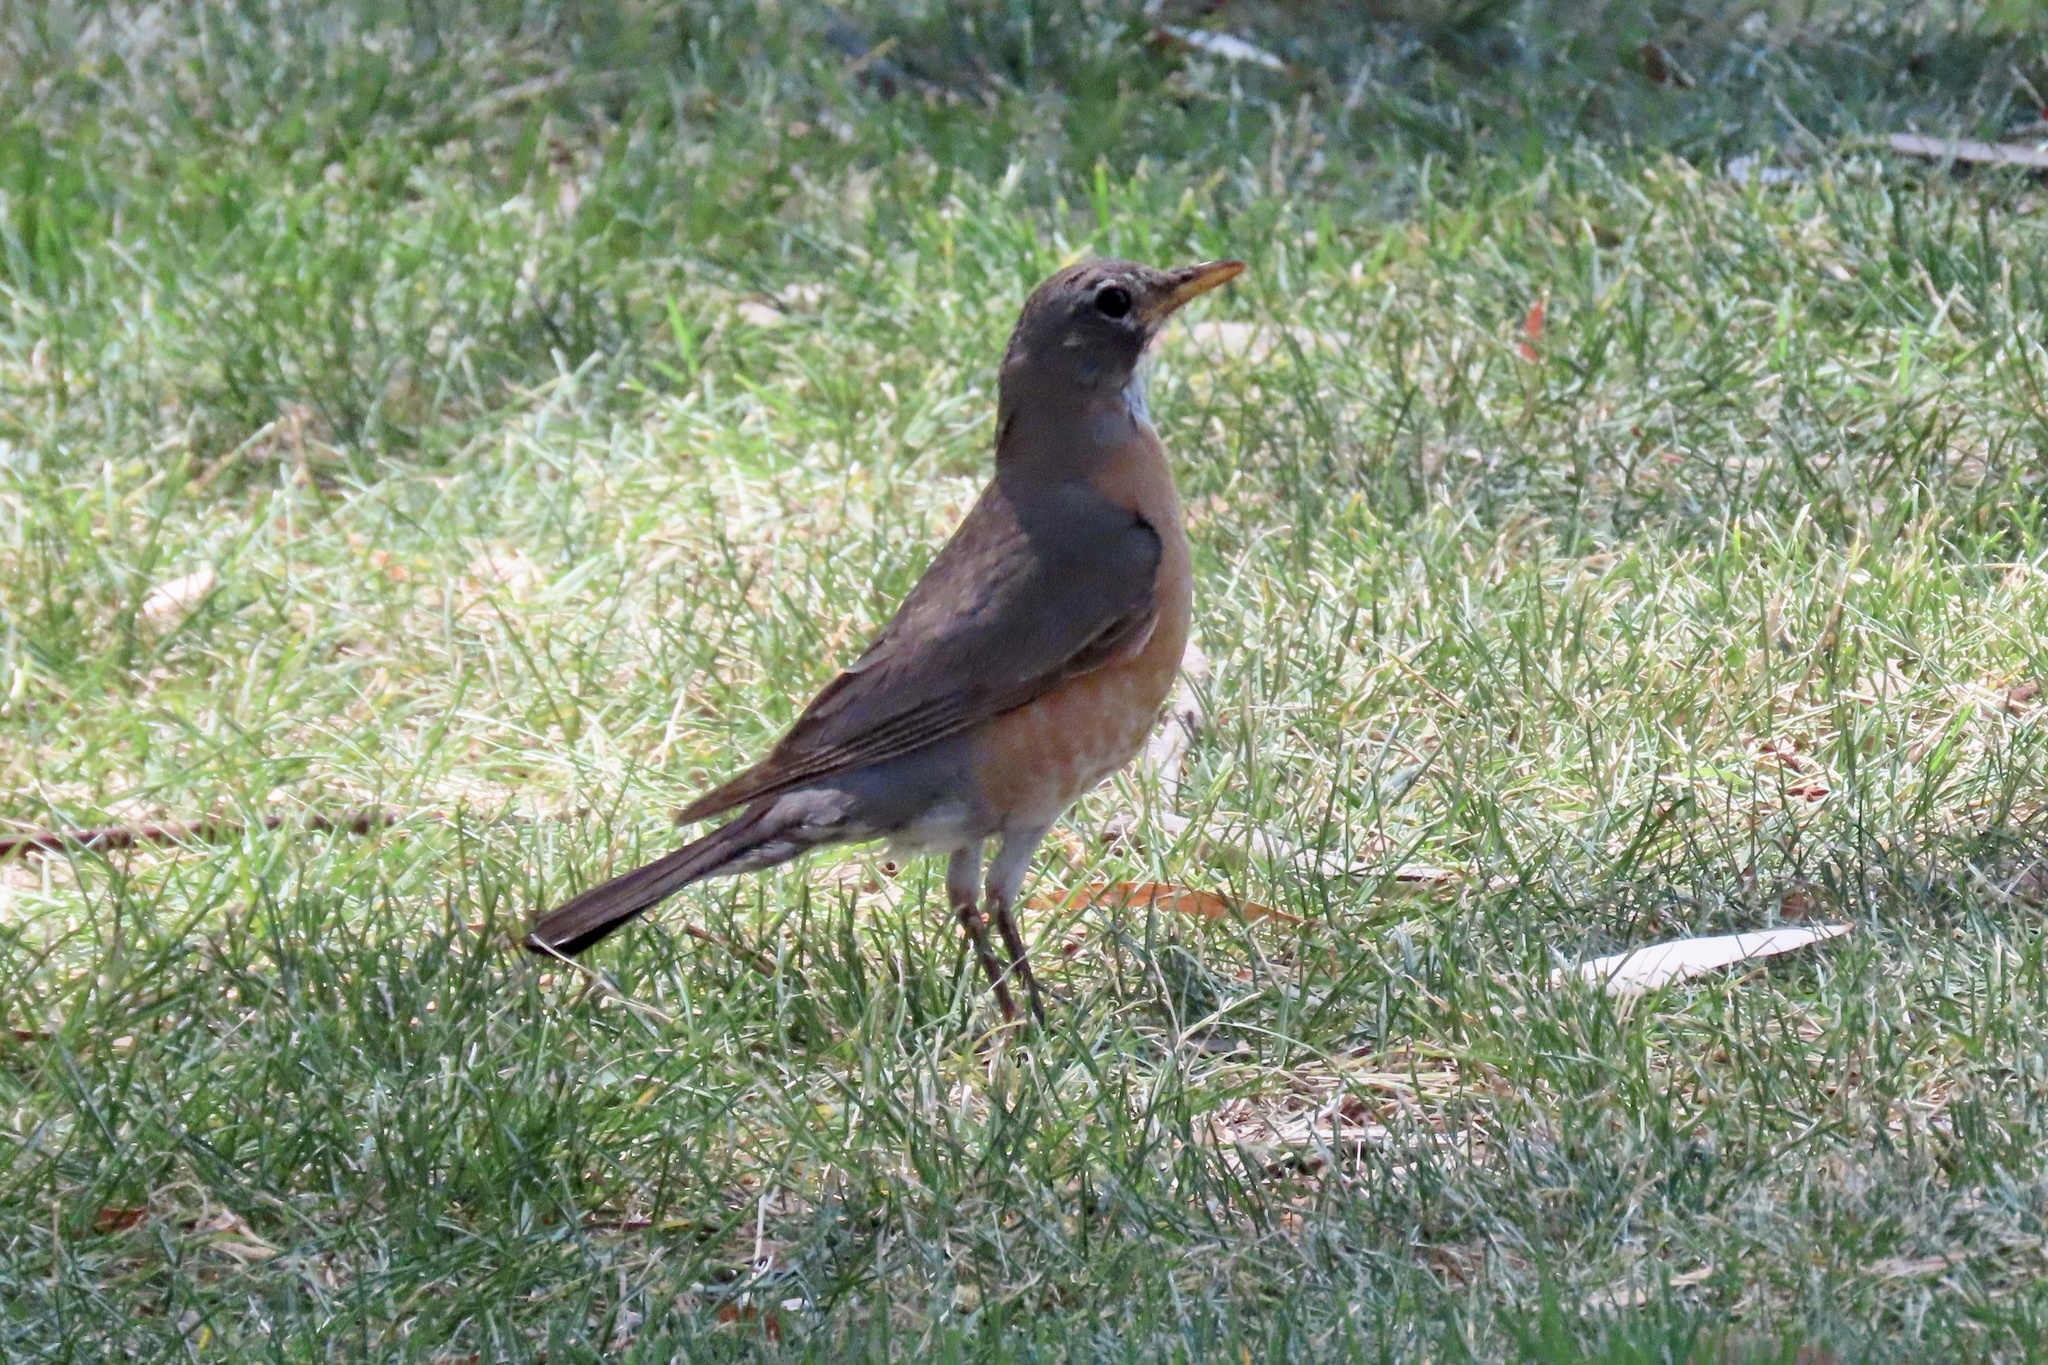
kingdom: Animalia
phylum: Chordata
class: Aves
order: Passeriformes
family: Turdidae
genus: Turdus
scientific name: Turdus migratorius
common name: American robin
